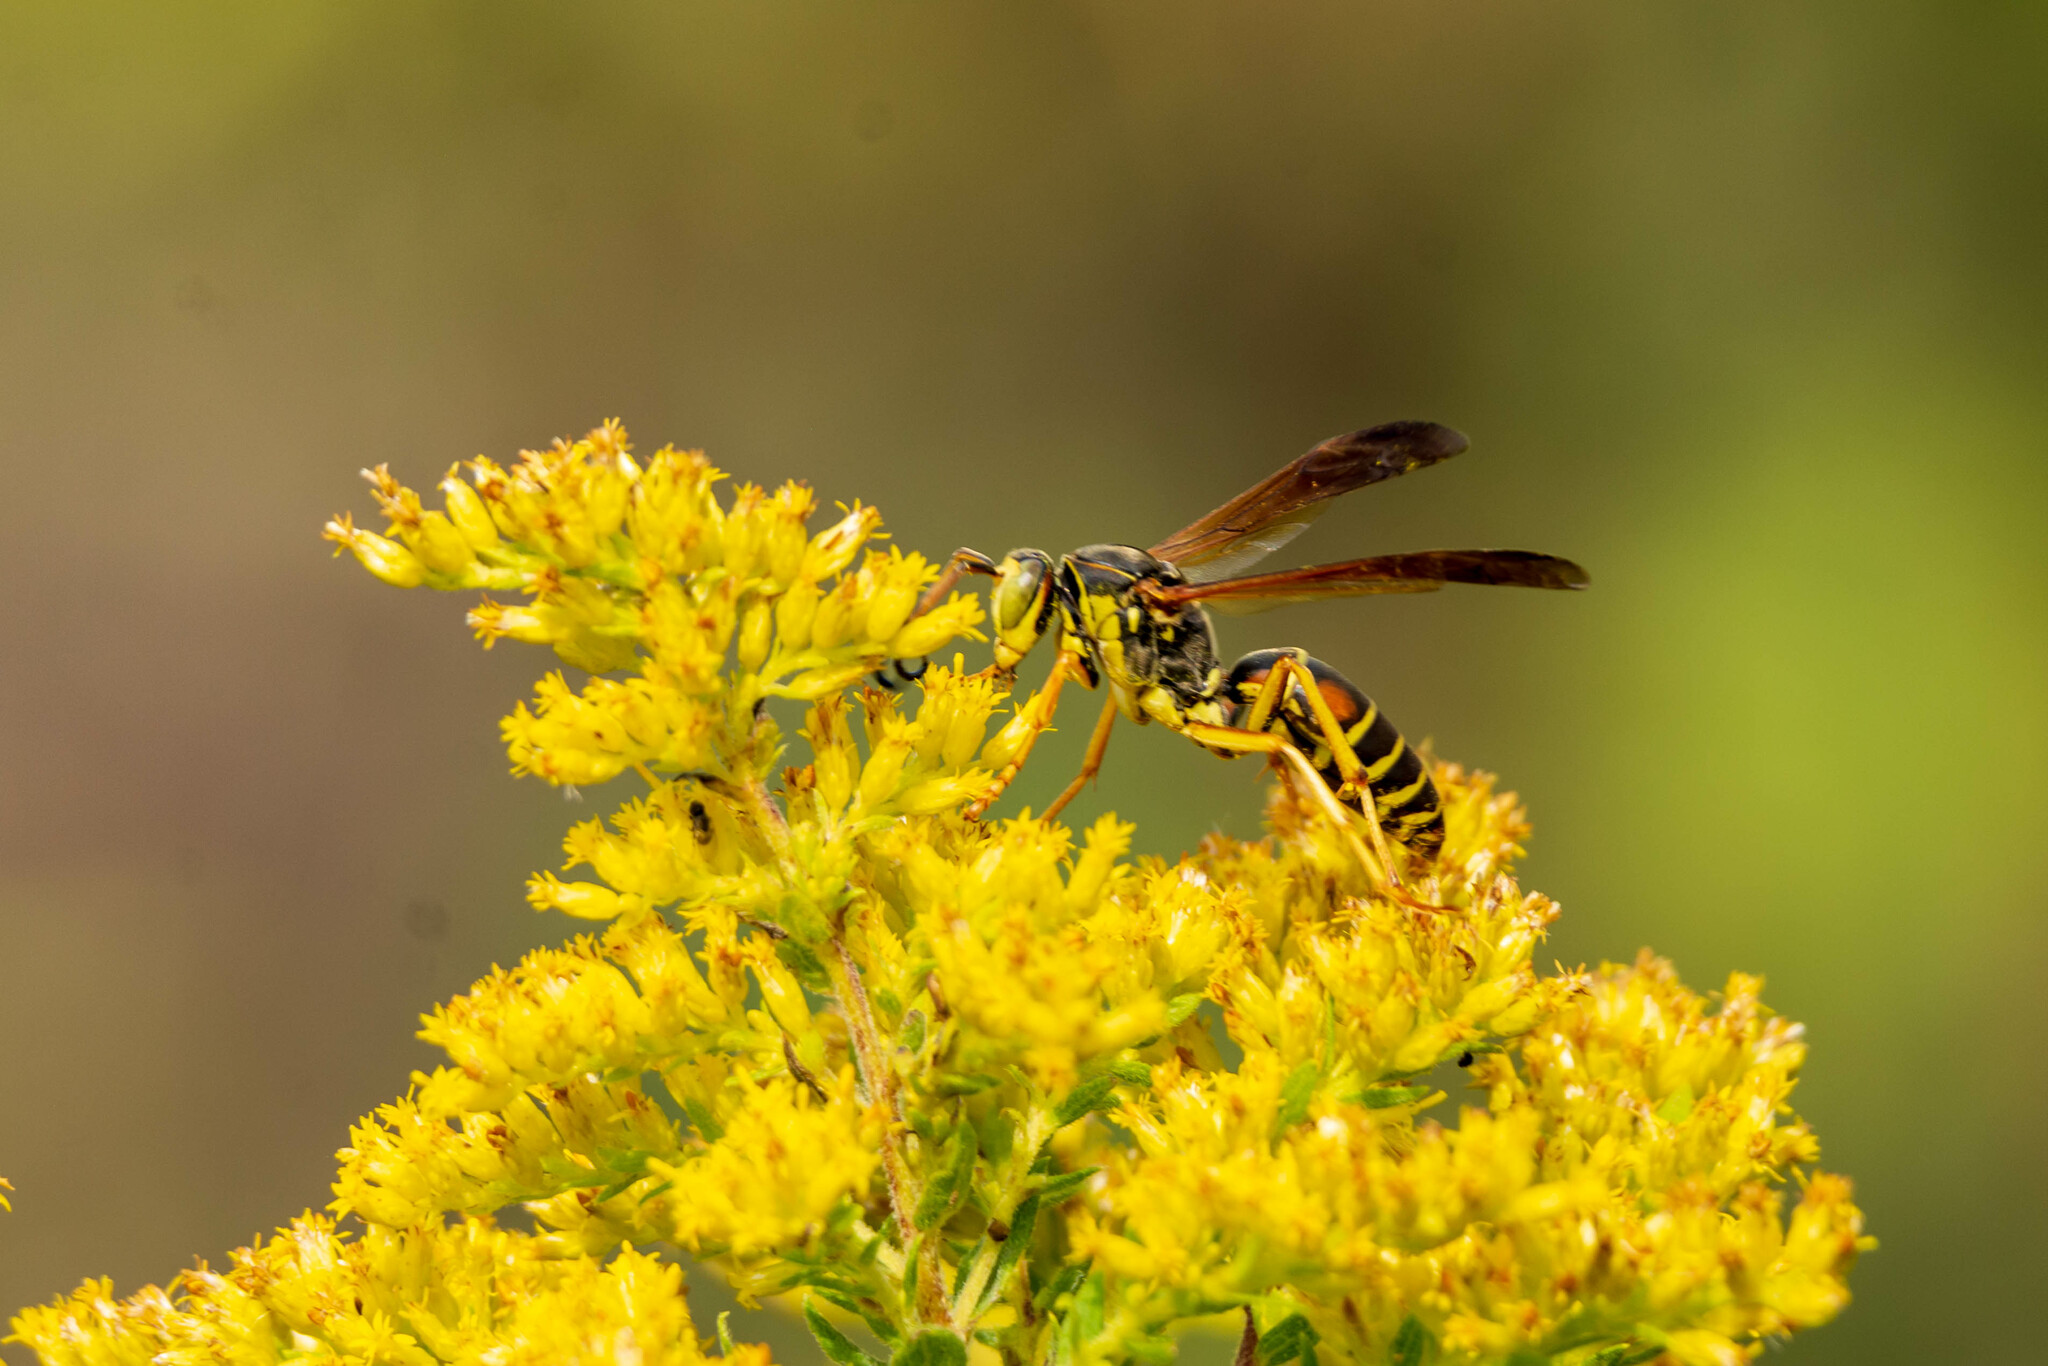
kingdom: Animalia
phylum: Arthropoda
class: Insecta
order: Hymenoptera
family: Eumenidae
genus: Polistes
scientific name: Polistes fuscatus
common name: Dark paper wasp
